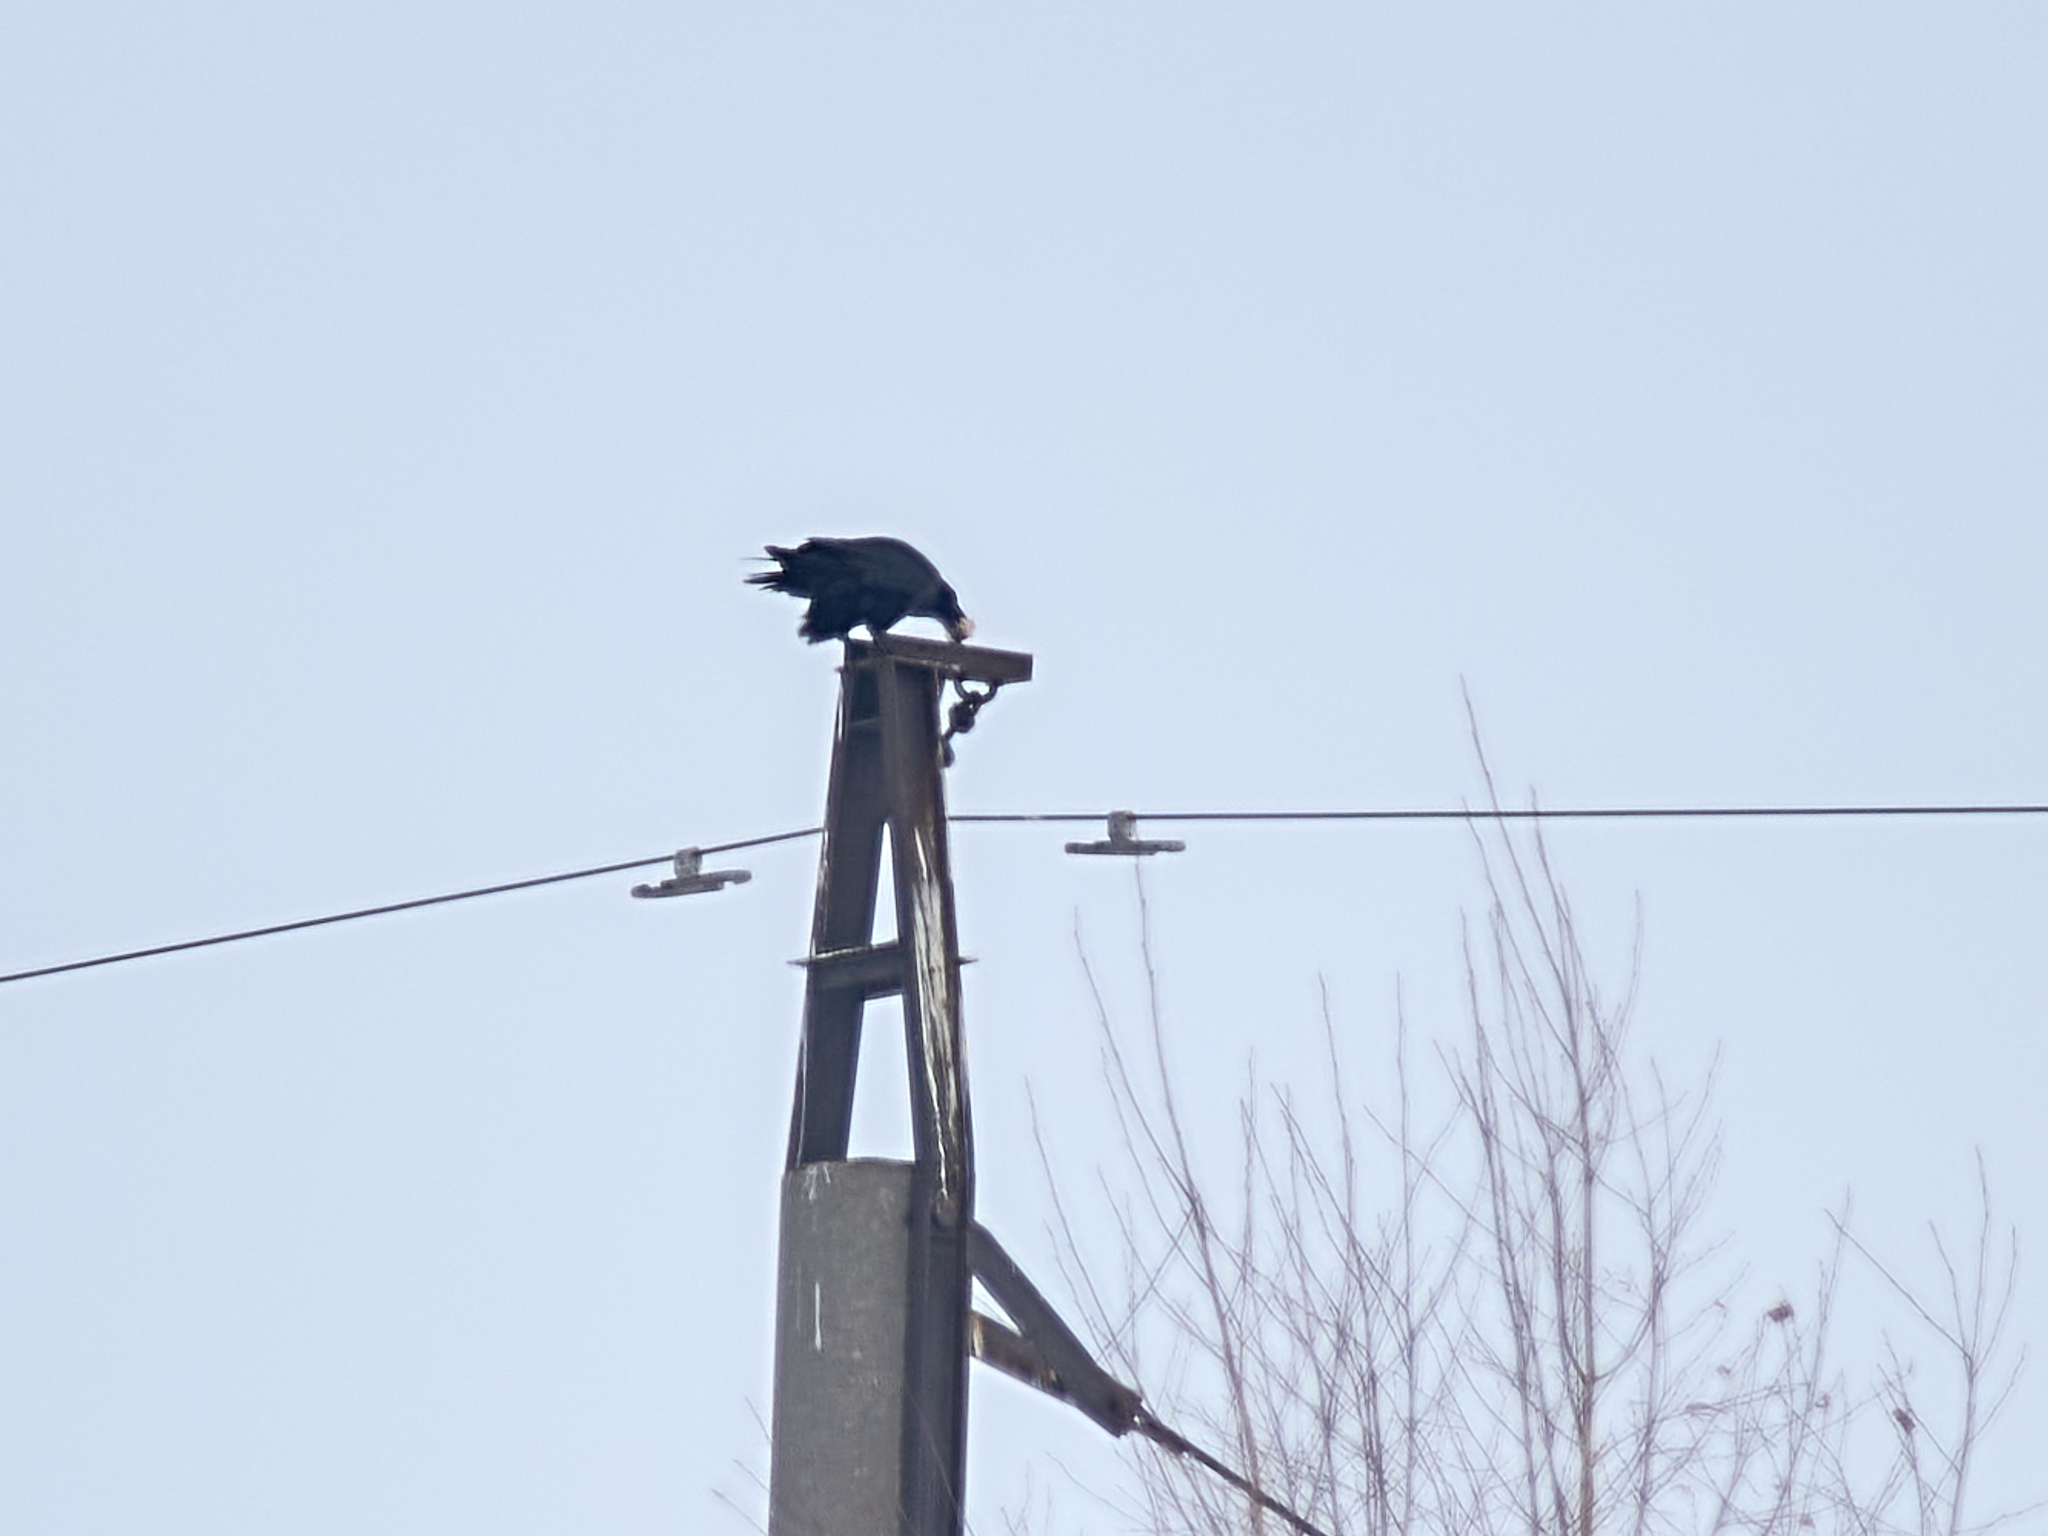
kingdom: Animalia
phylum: Chordata
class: Aves
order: Passeriformes
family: Corvidae
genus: Corvus
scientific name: Corvus corax
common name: Common raven
